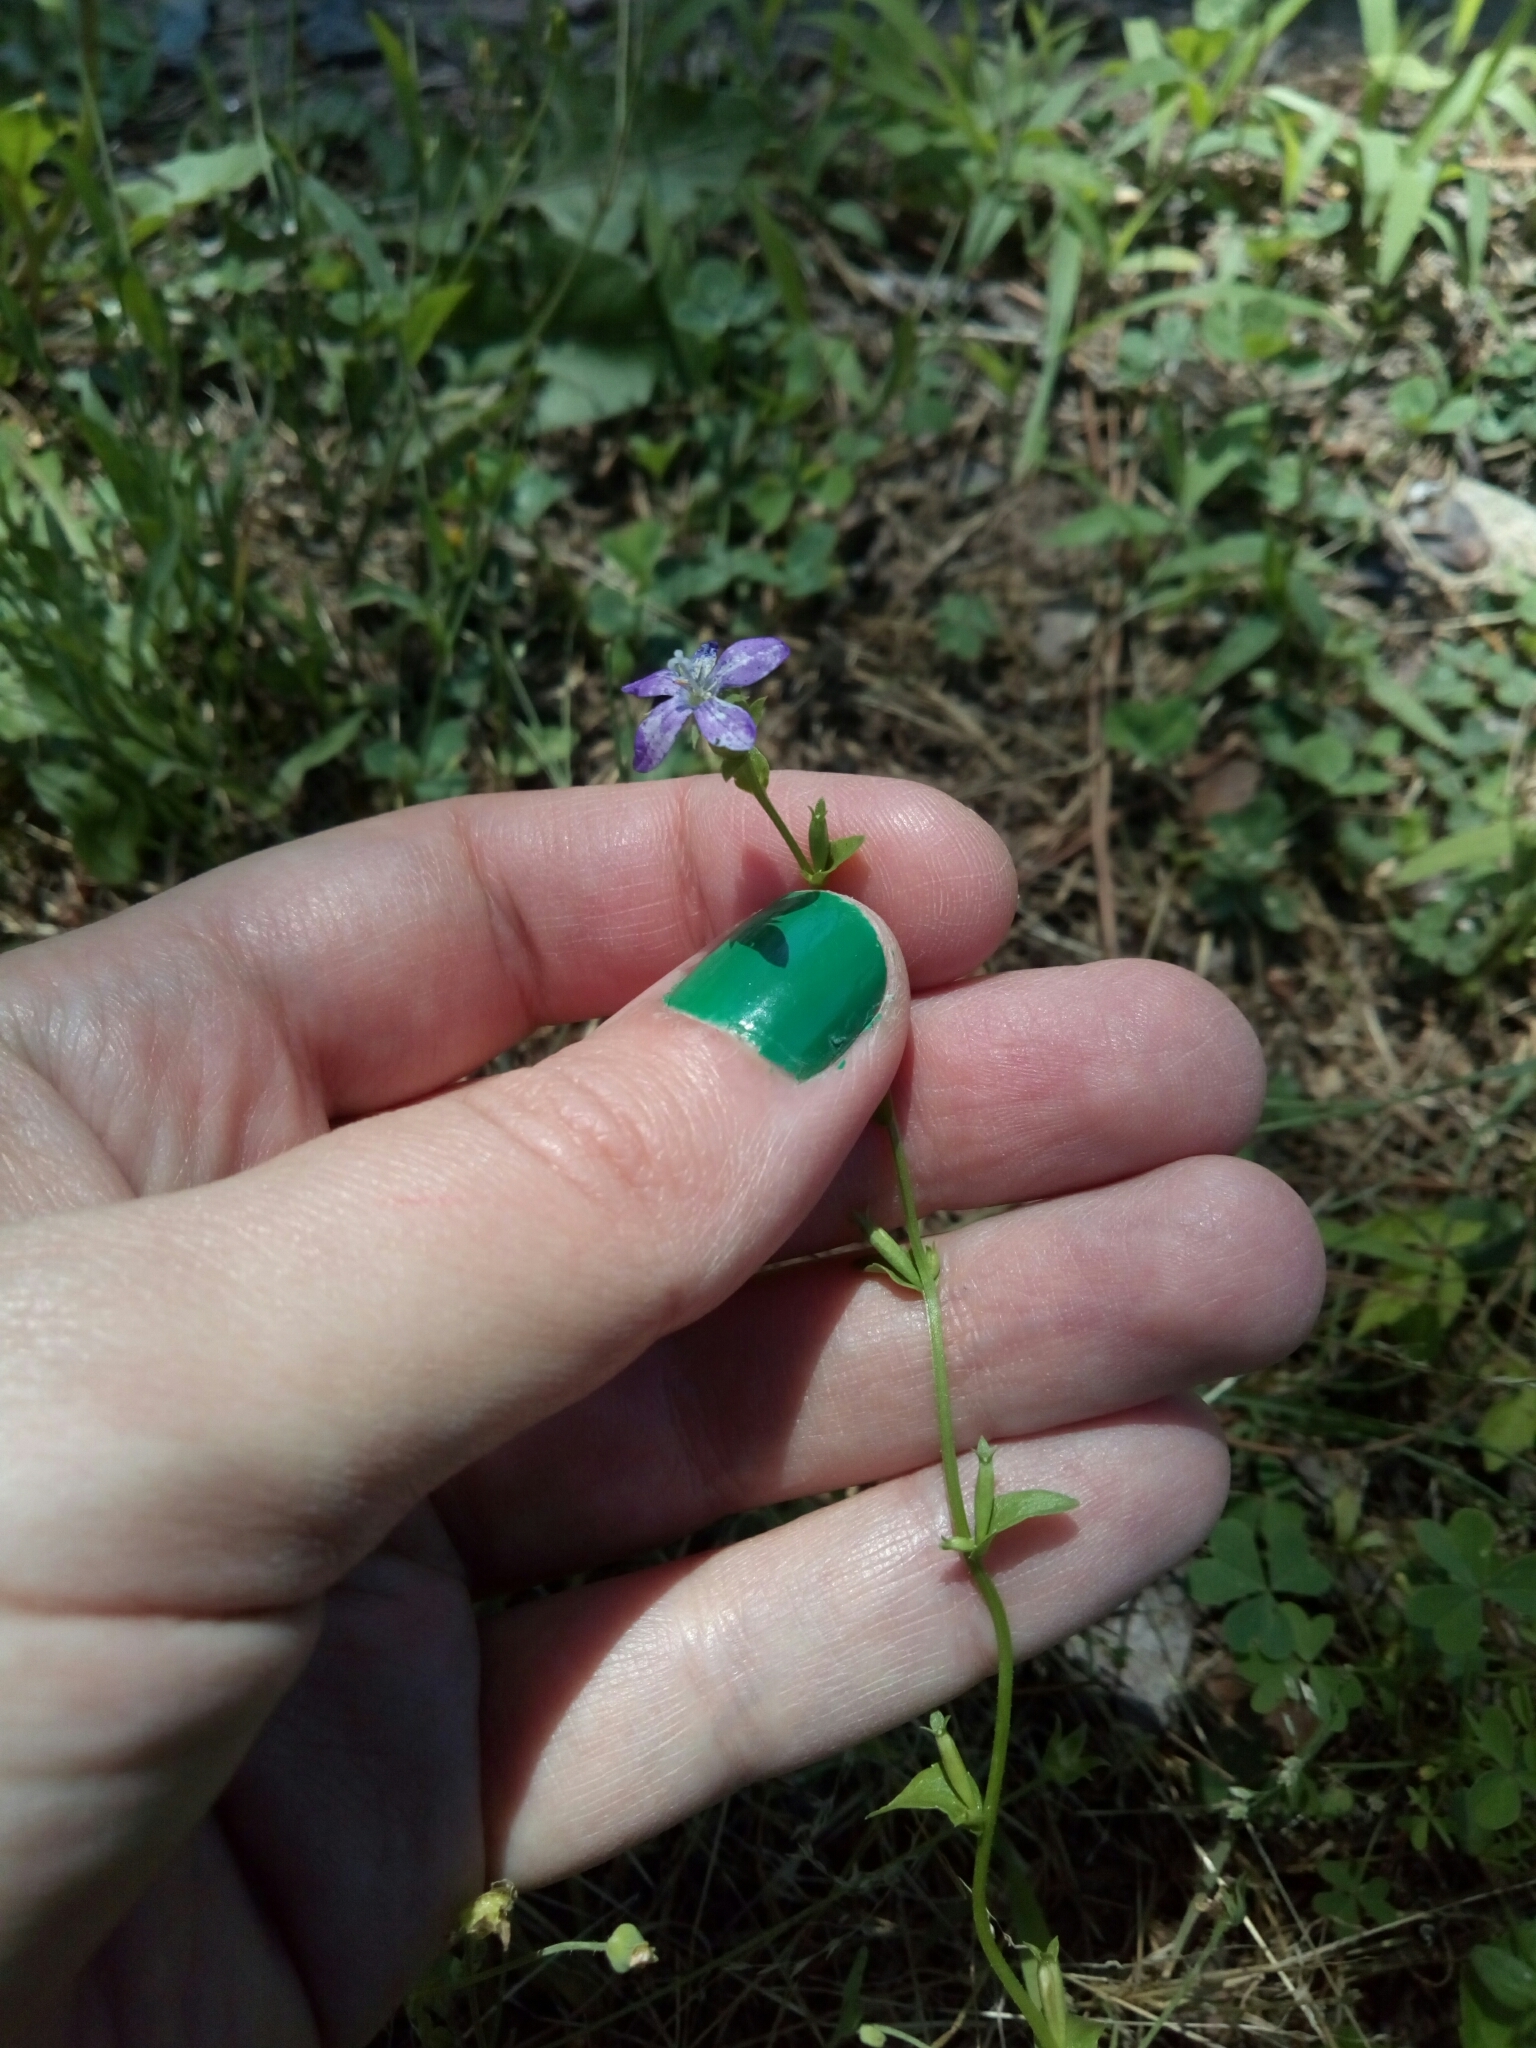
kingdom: Plantae
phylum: Tracheophyta
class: Magnoliopsida
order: Asterales
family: Campanulaceae
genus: Triodanis
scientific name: Triodanis perfoliata
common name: Clasping venus' looking-glass
